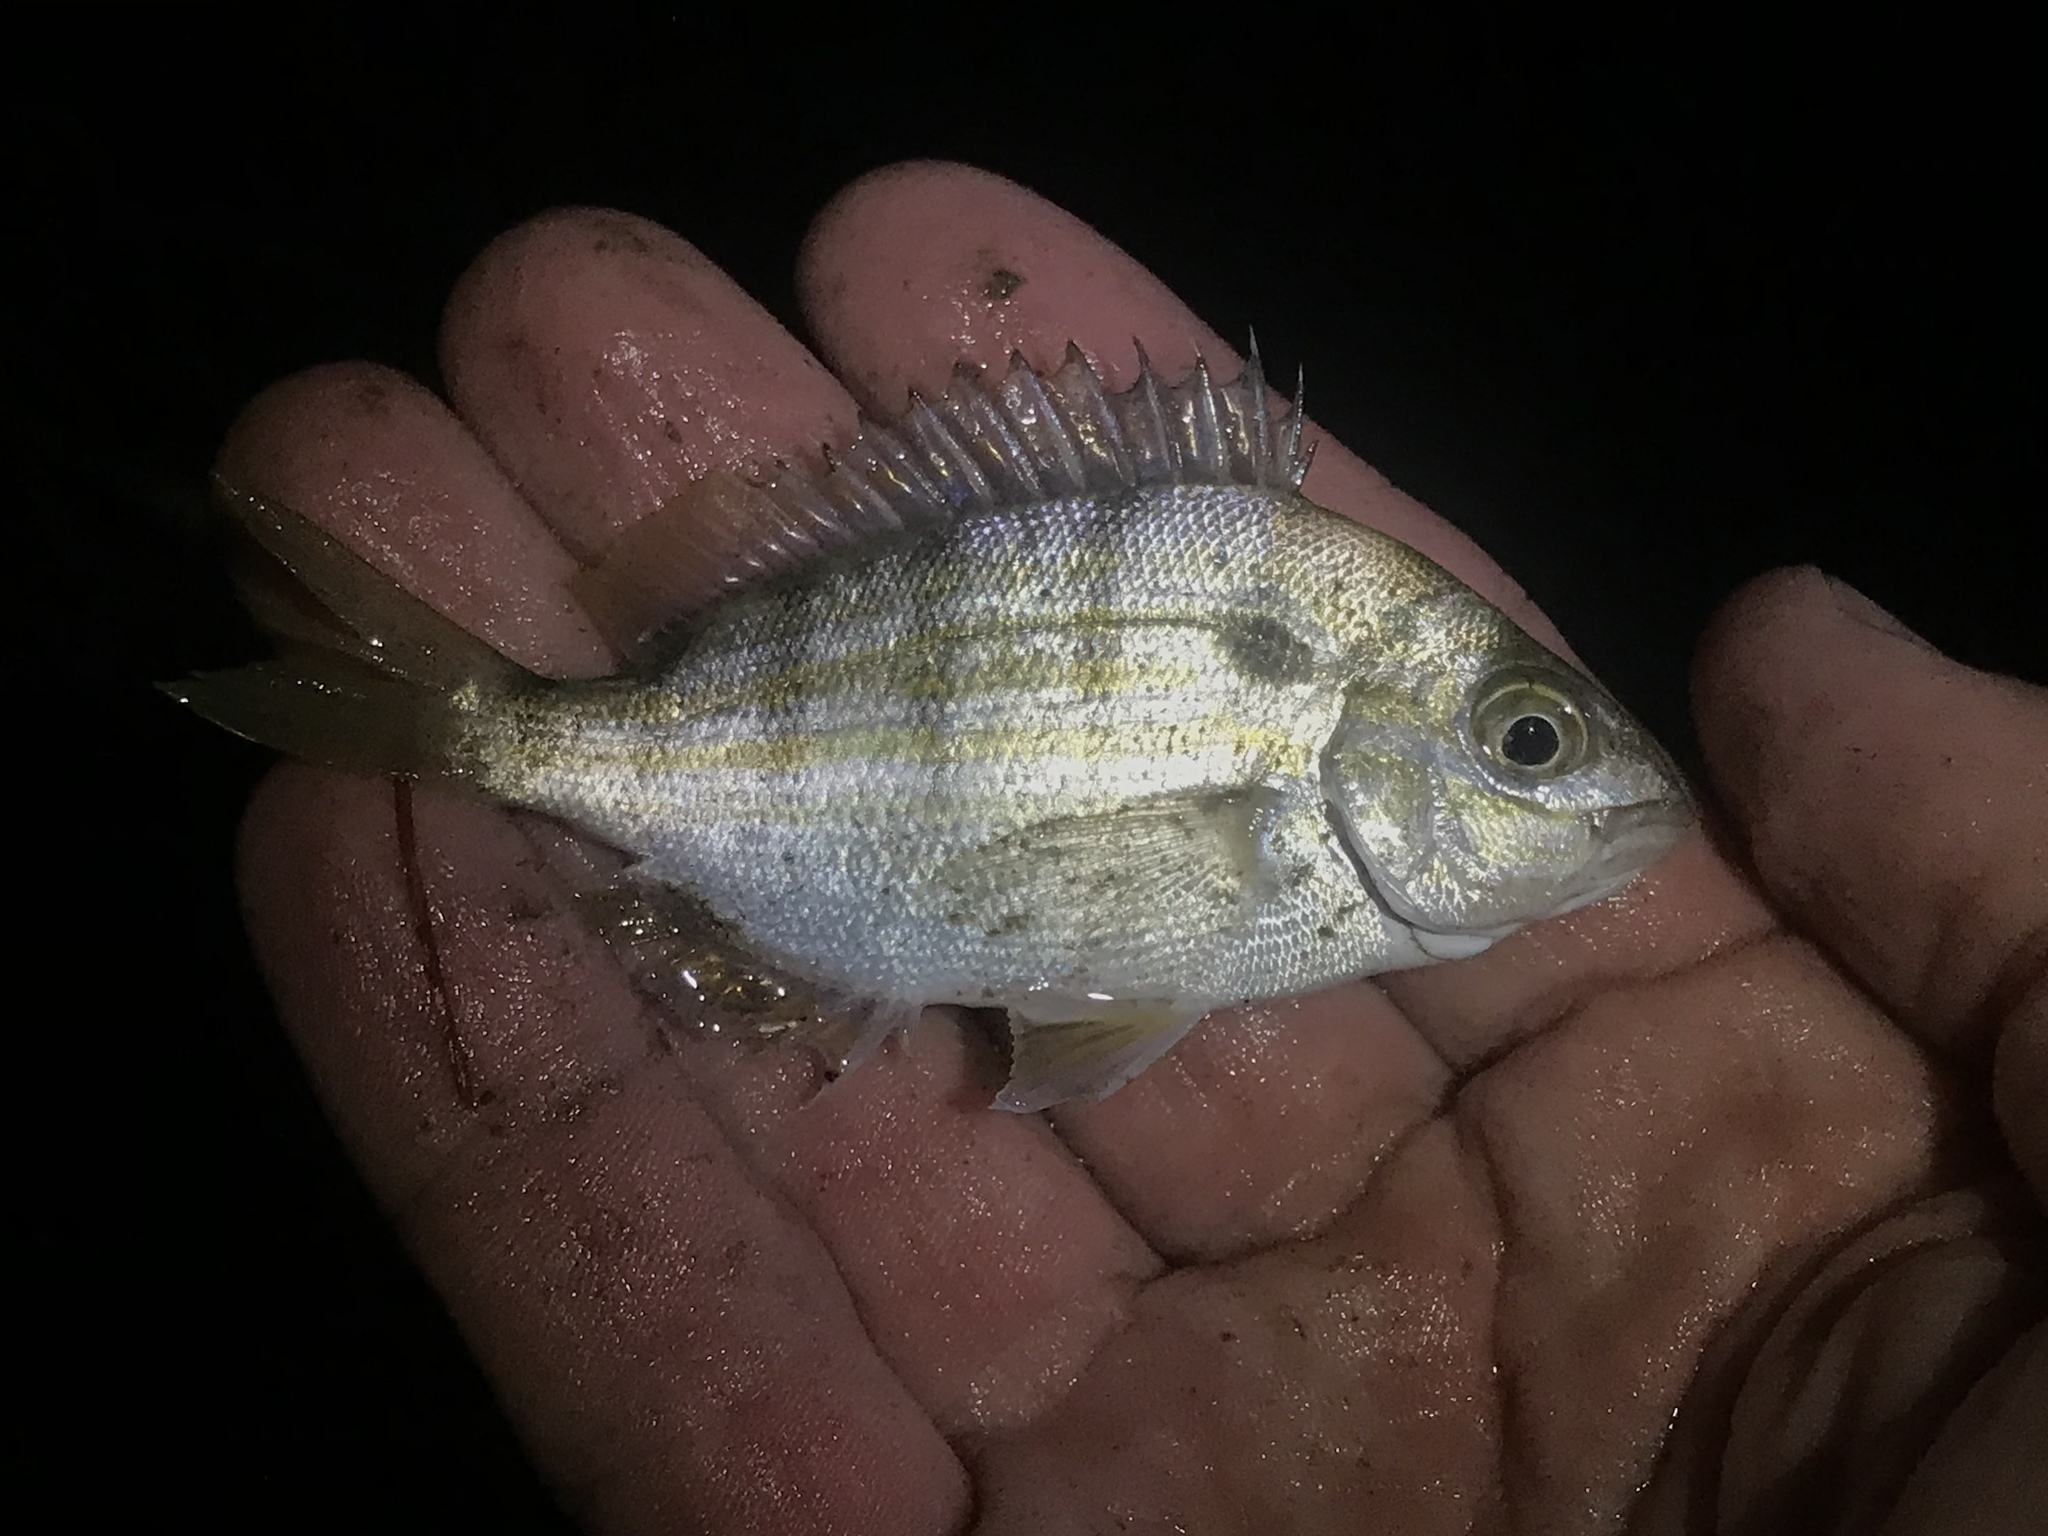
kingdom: Animalia
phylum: Chordata
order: Perciformes
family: Sparidae
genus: Lagodon
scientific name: Lagodon rhomboides
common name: Pinfish
